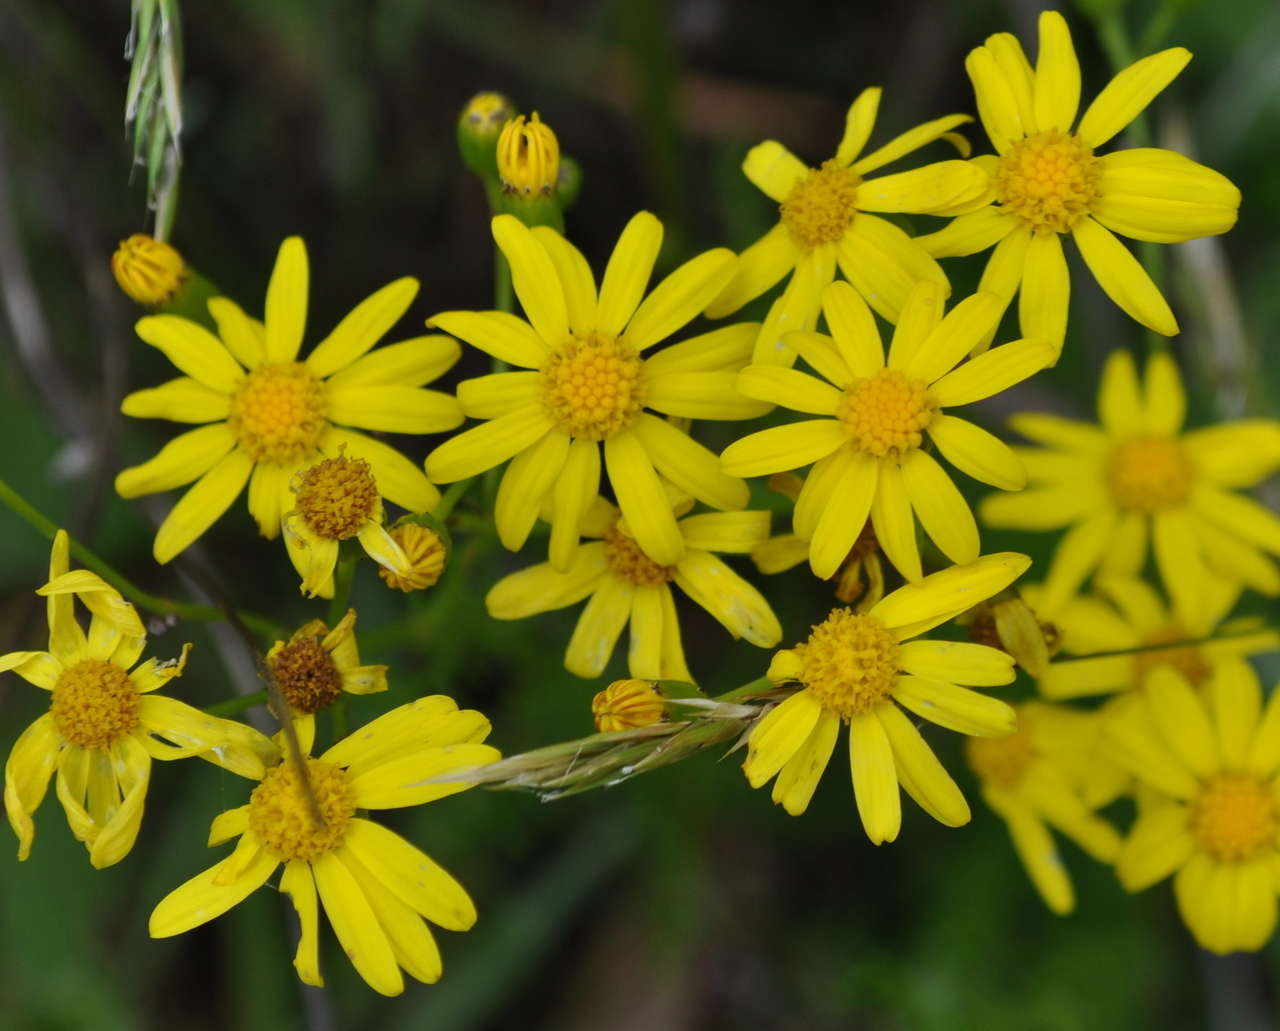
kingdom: Plantae
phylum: Tracheophyta
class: Magnoliopsida
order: Asterales
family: Asteraceae
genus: Senecio
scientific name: Senecio pinnatifolius
